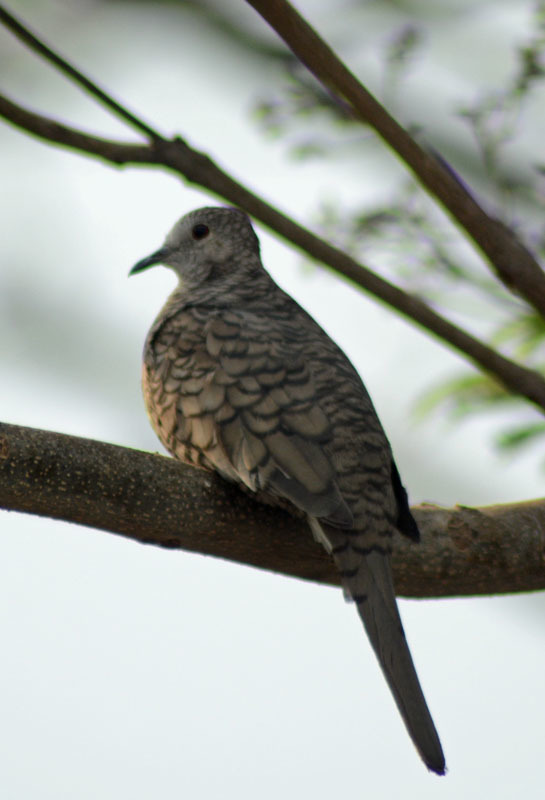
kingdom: Animalia
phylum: Chordata
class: Aves
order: Columbiformes
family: Columbidae
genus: Columbina
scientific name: Columbina inca
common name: Inca dove
